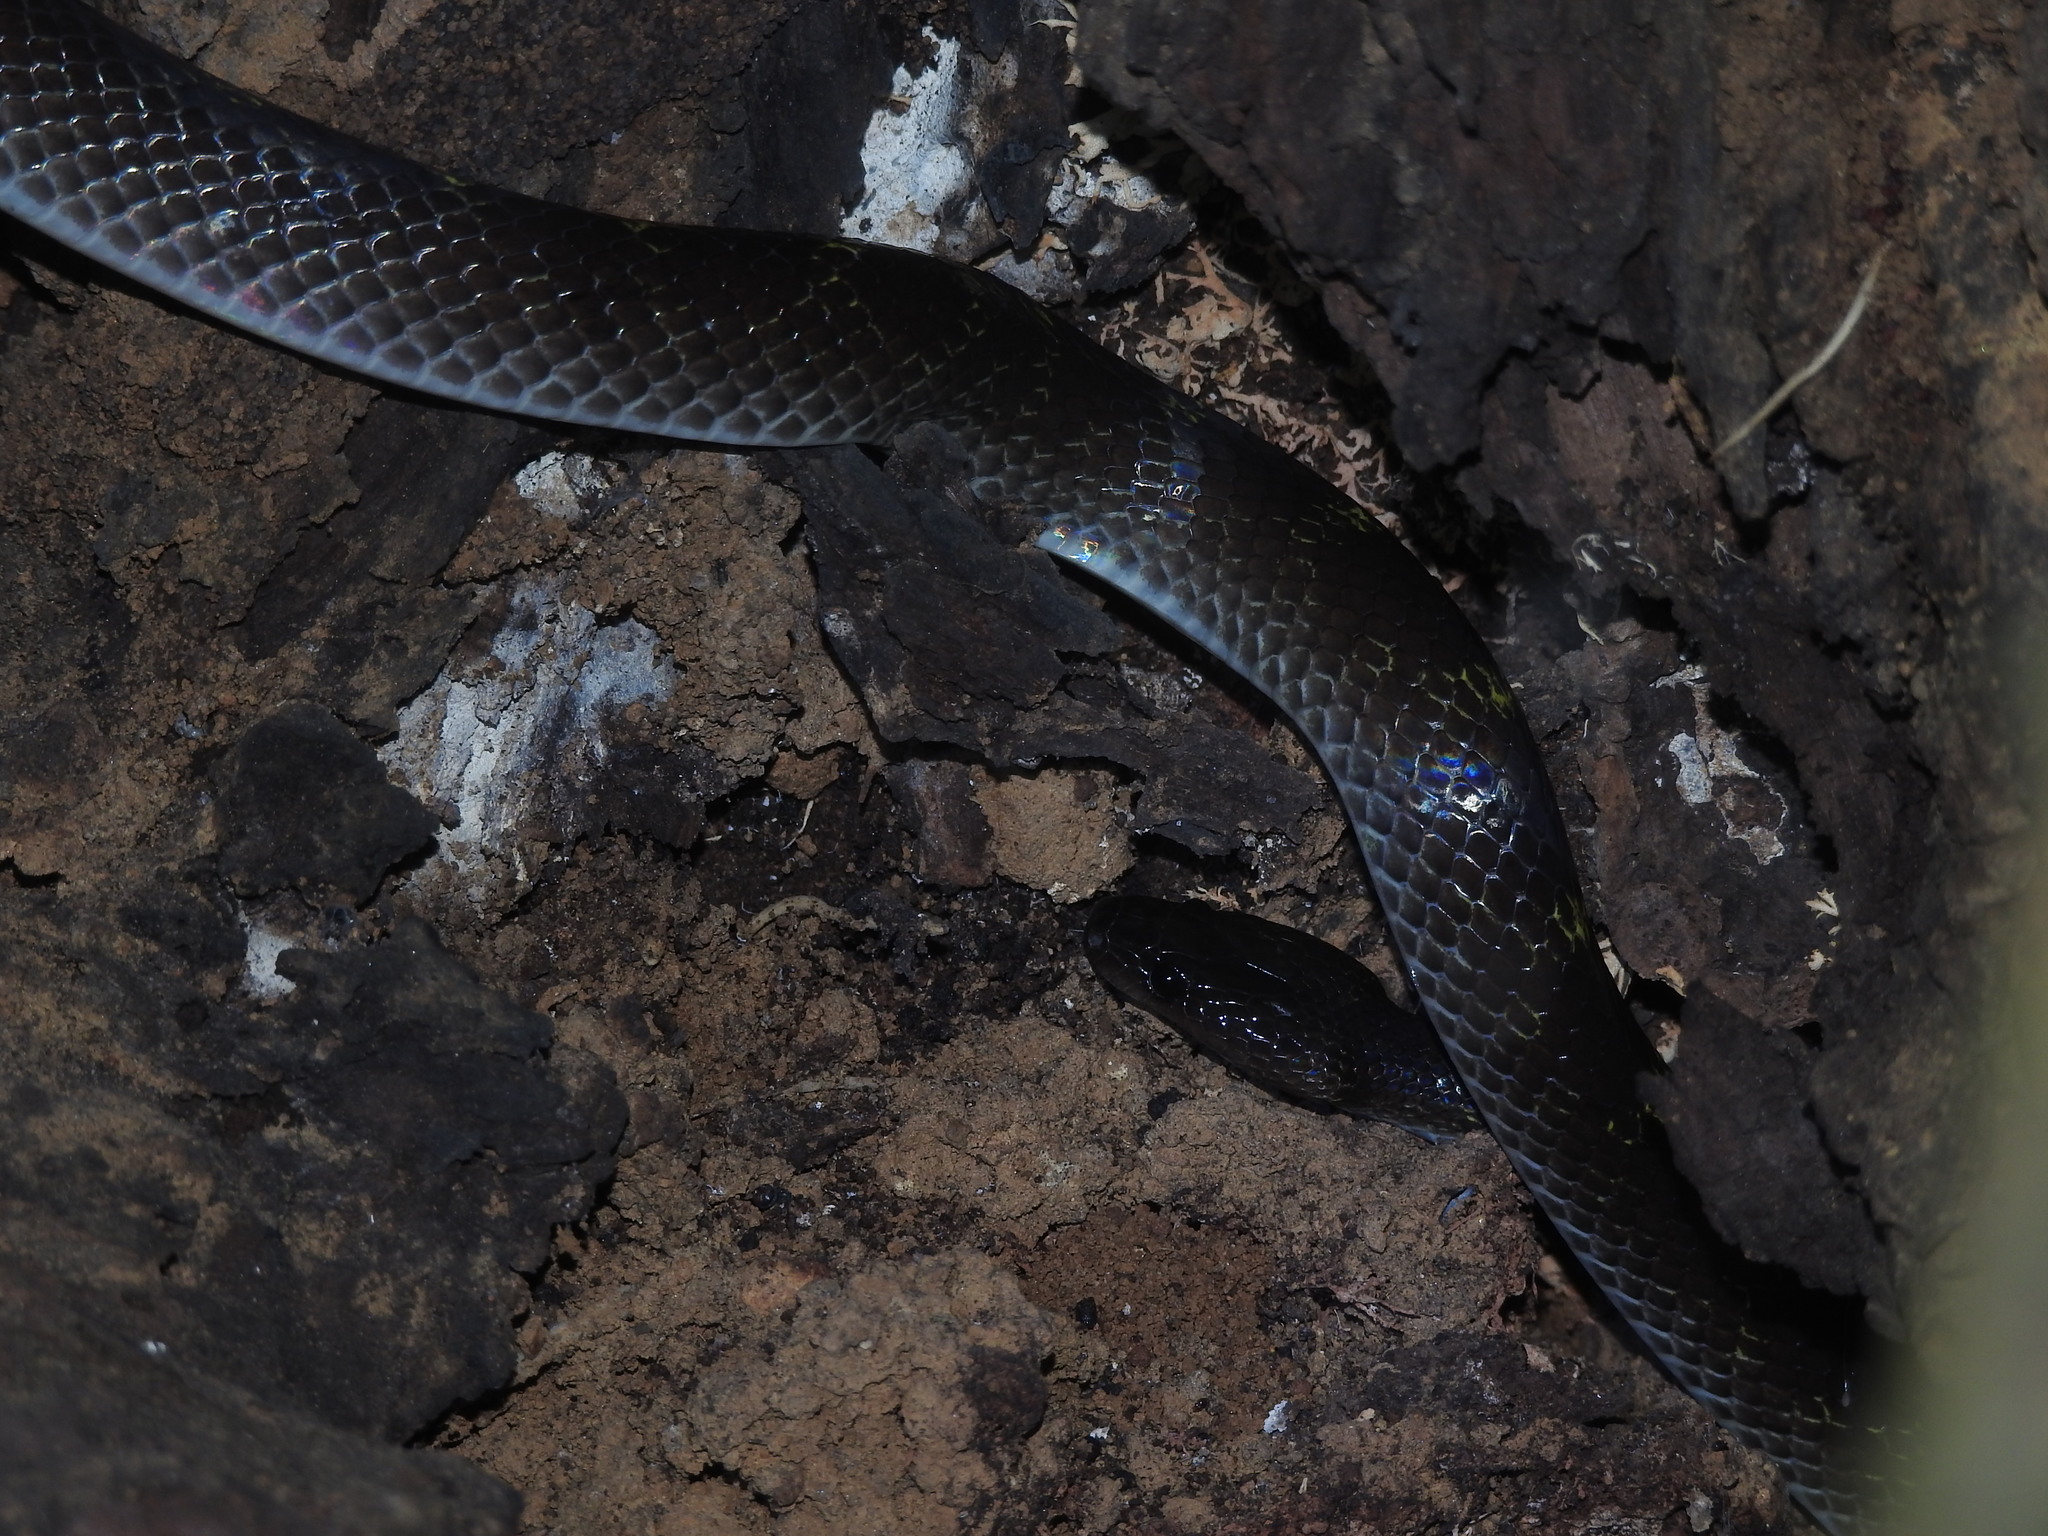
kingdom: Animalia
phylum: Chordata
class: Squamata
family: Colubridae
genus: Lycodon
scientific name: Lycodon travancoricus
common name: Travancore wolf snake
